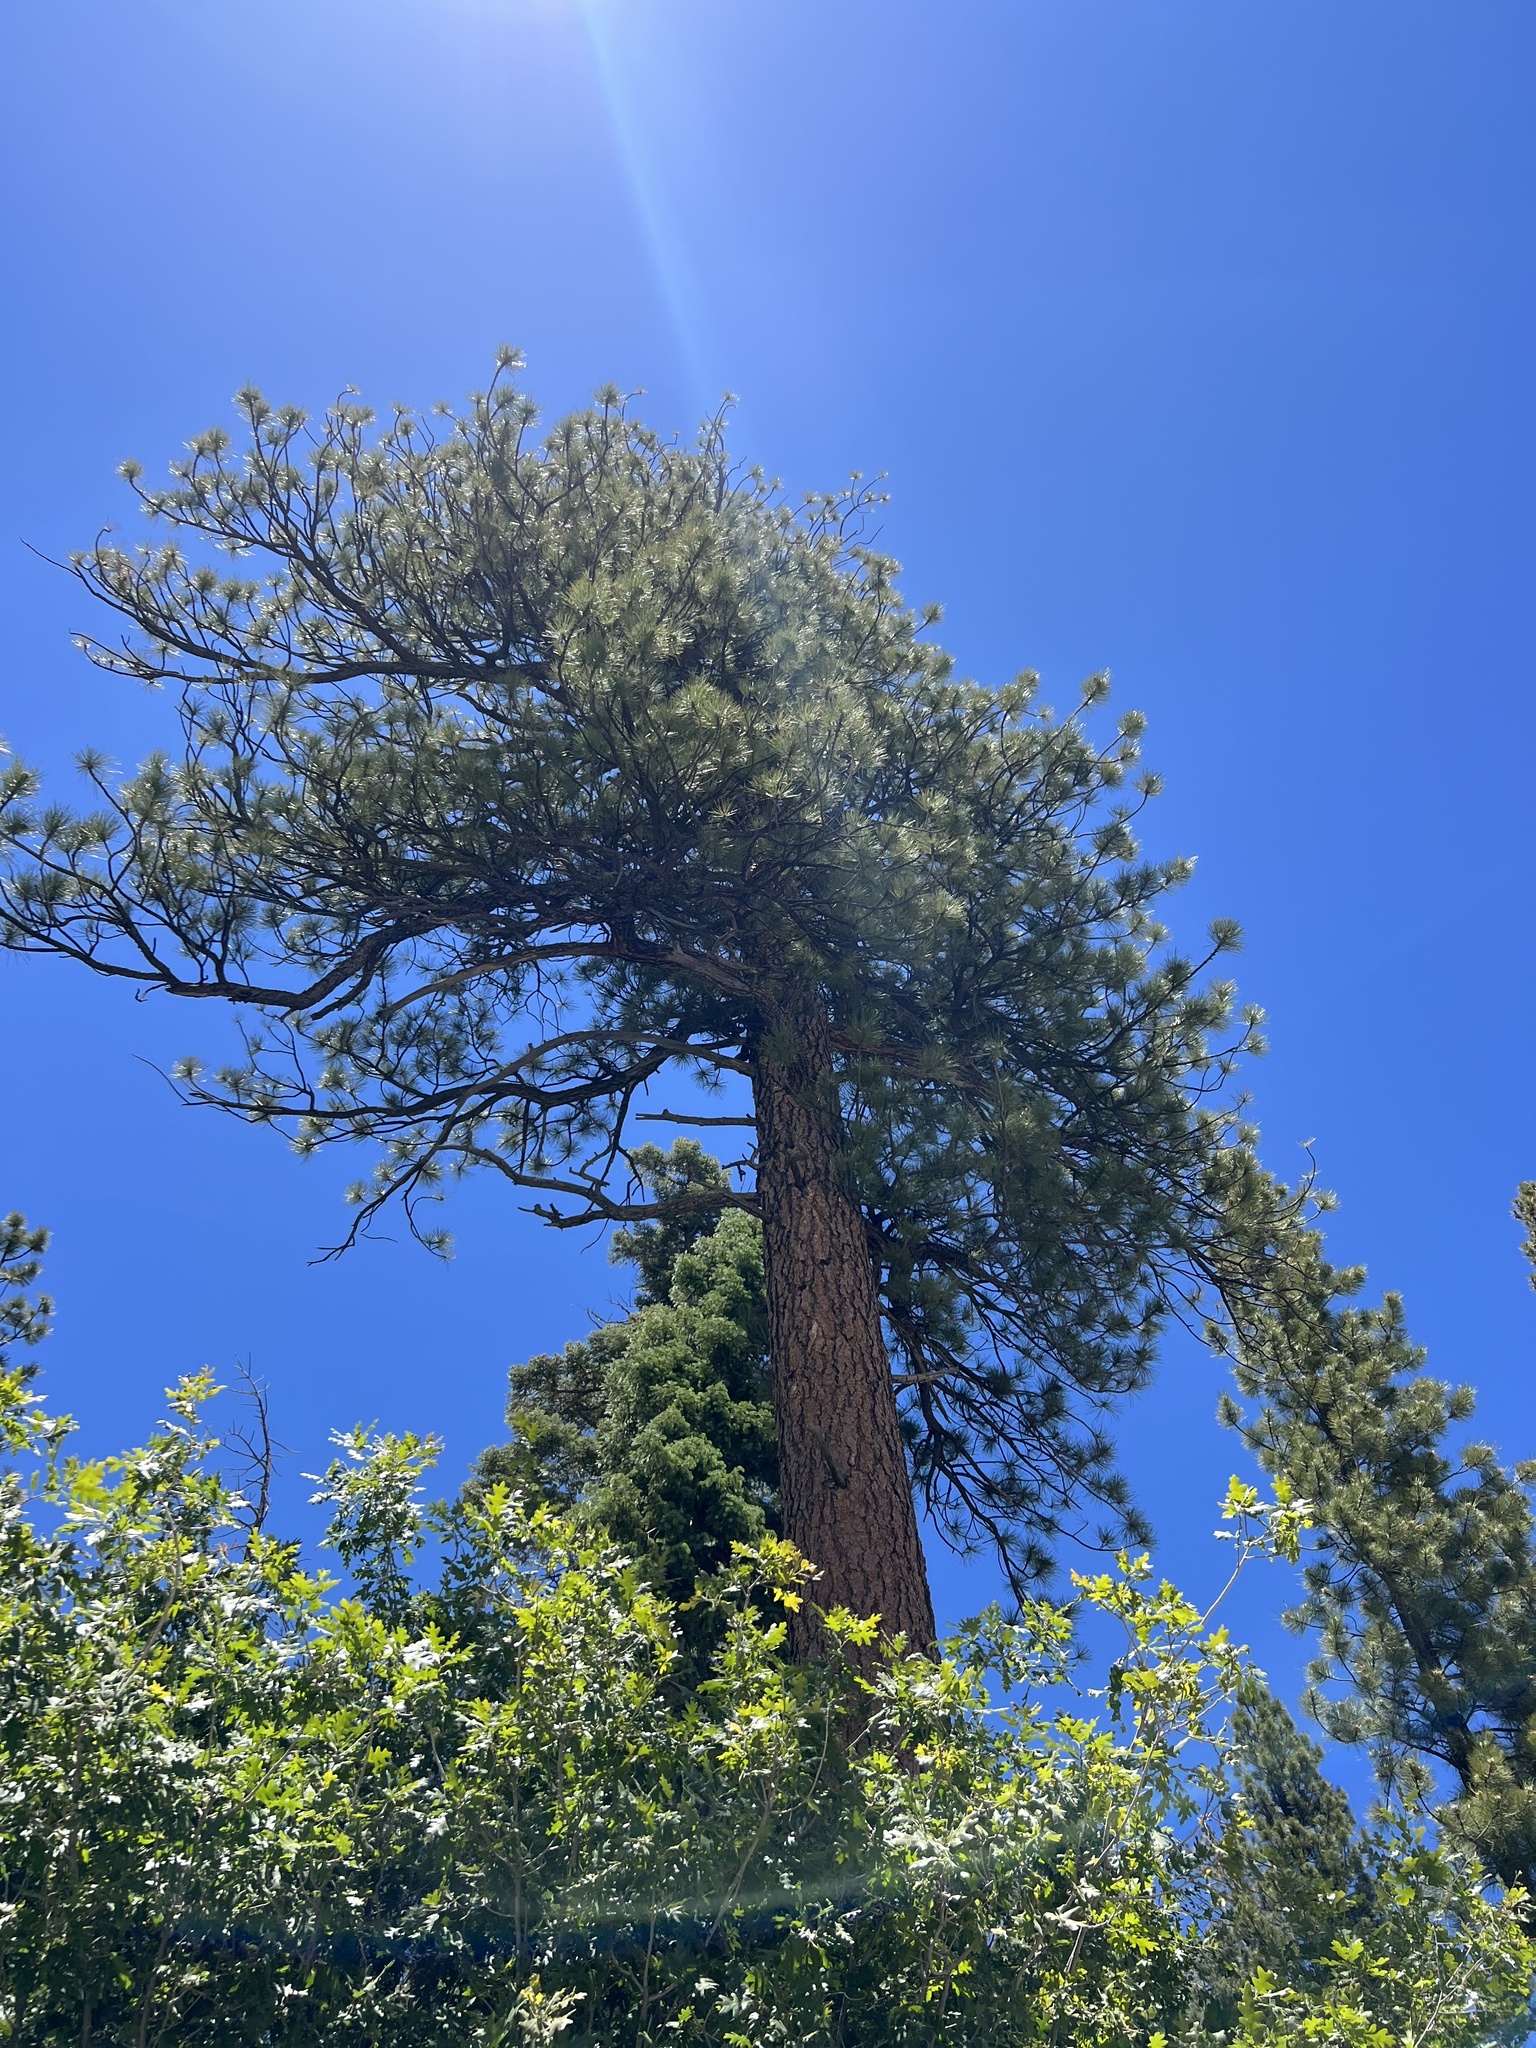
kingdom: Plantae
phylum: Tracheophyta
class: Pinopsida
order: Pinales
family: Pinaceae
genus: Pinus
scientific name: Pinus ponderosa
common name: Western yellow-pine
